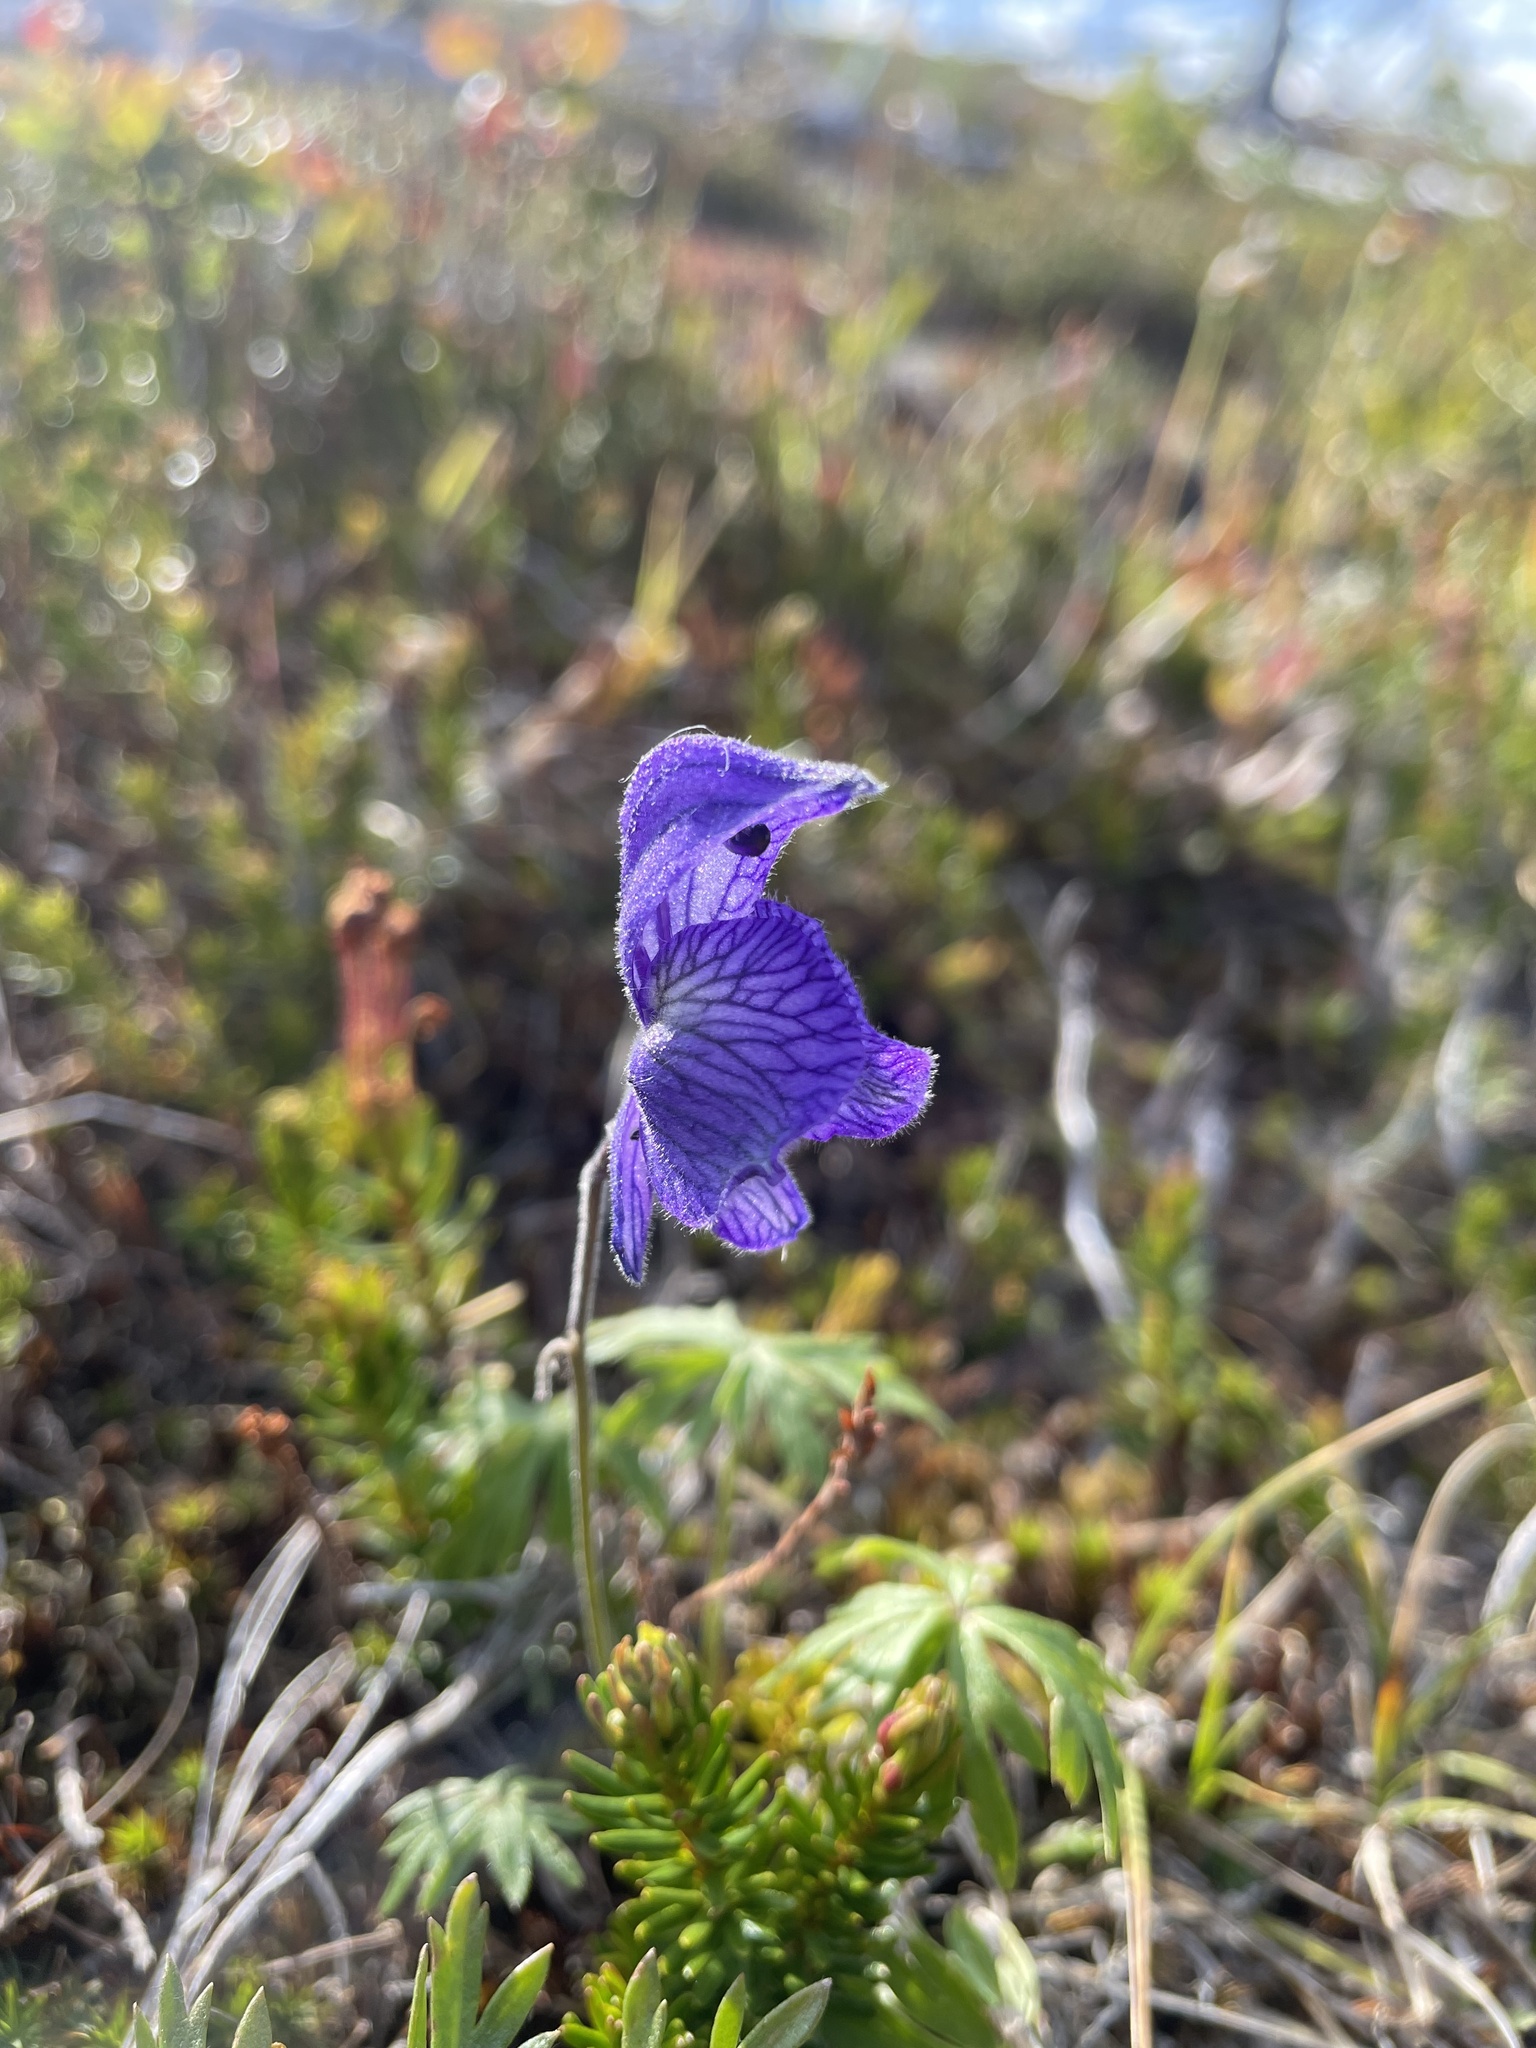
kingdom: Plantae
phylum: Tracheophyta
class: Magnoliopsida
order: Ranunculales
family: Ranunculaceae
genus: Aconitum
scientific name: Aconitum delphiniifolium
